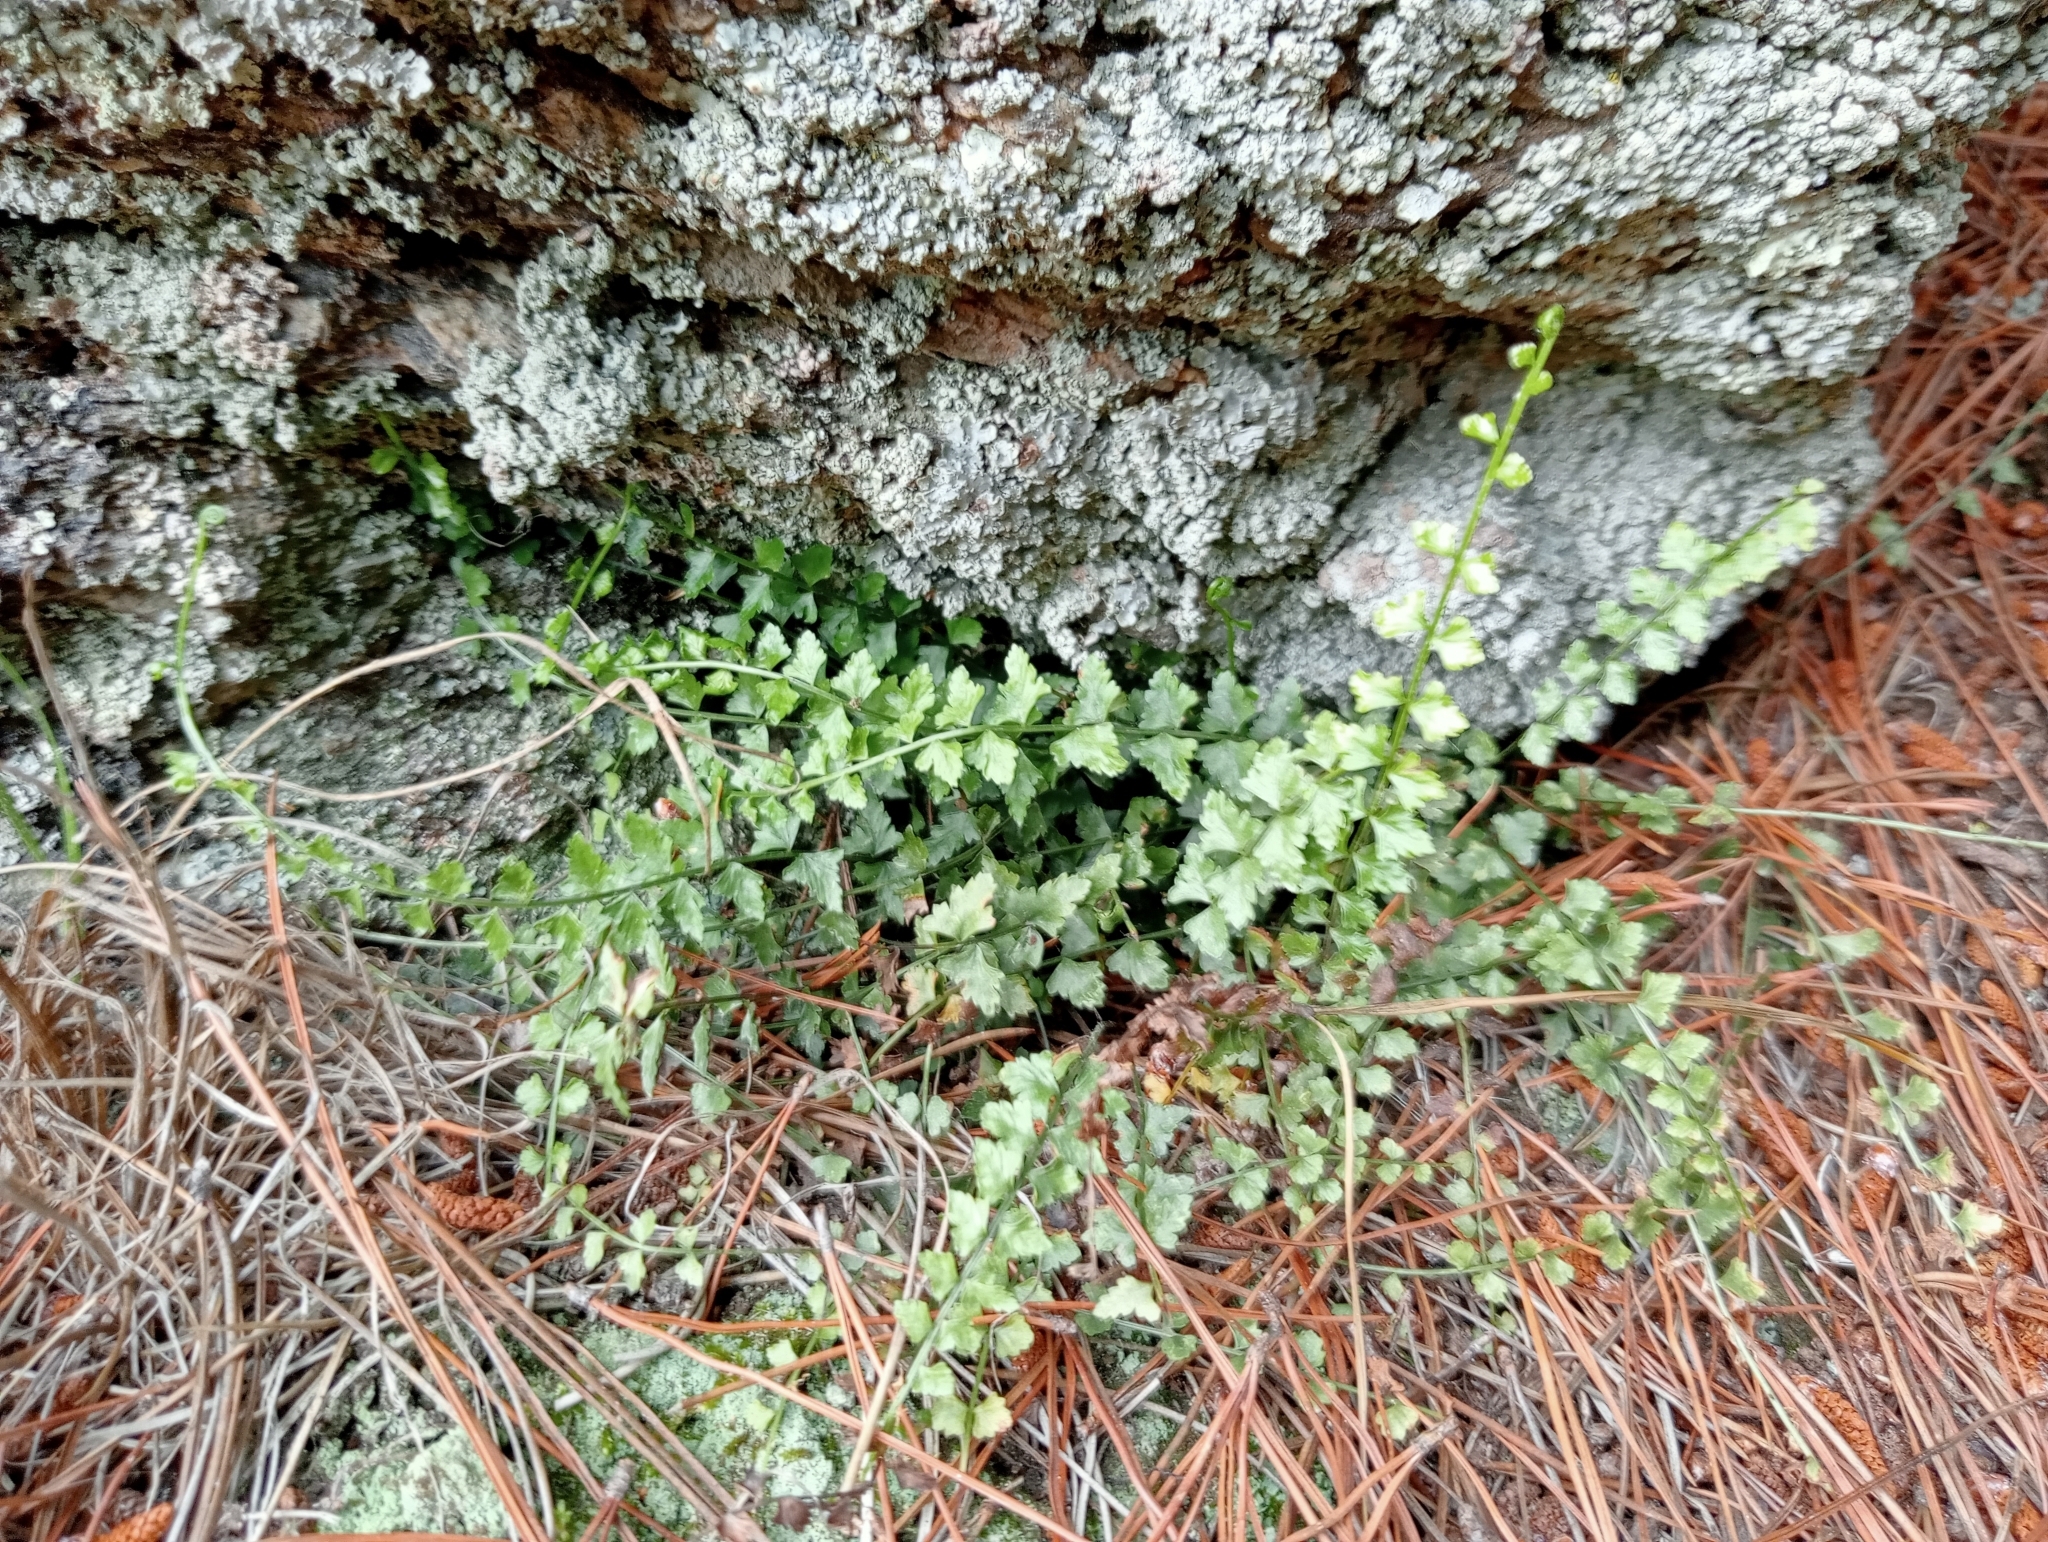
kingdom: Plantae
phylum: Tracheophyta
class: Polypodiopsida
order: Polypodiales
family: Aspleniaceae
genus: Asplenium
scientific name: Asplenium flabellifolium
